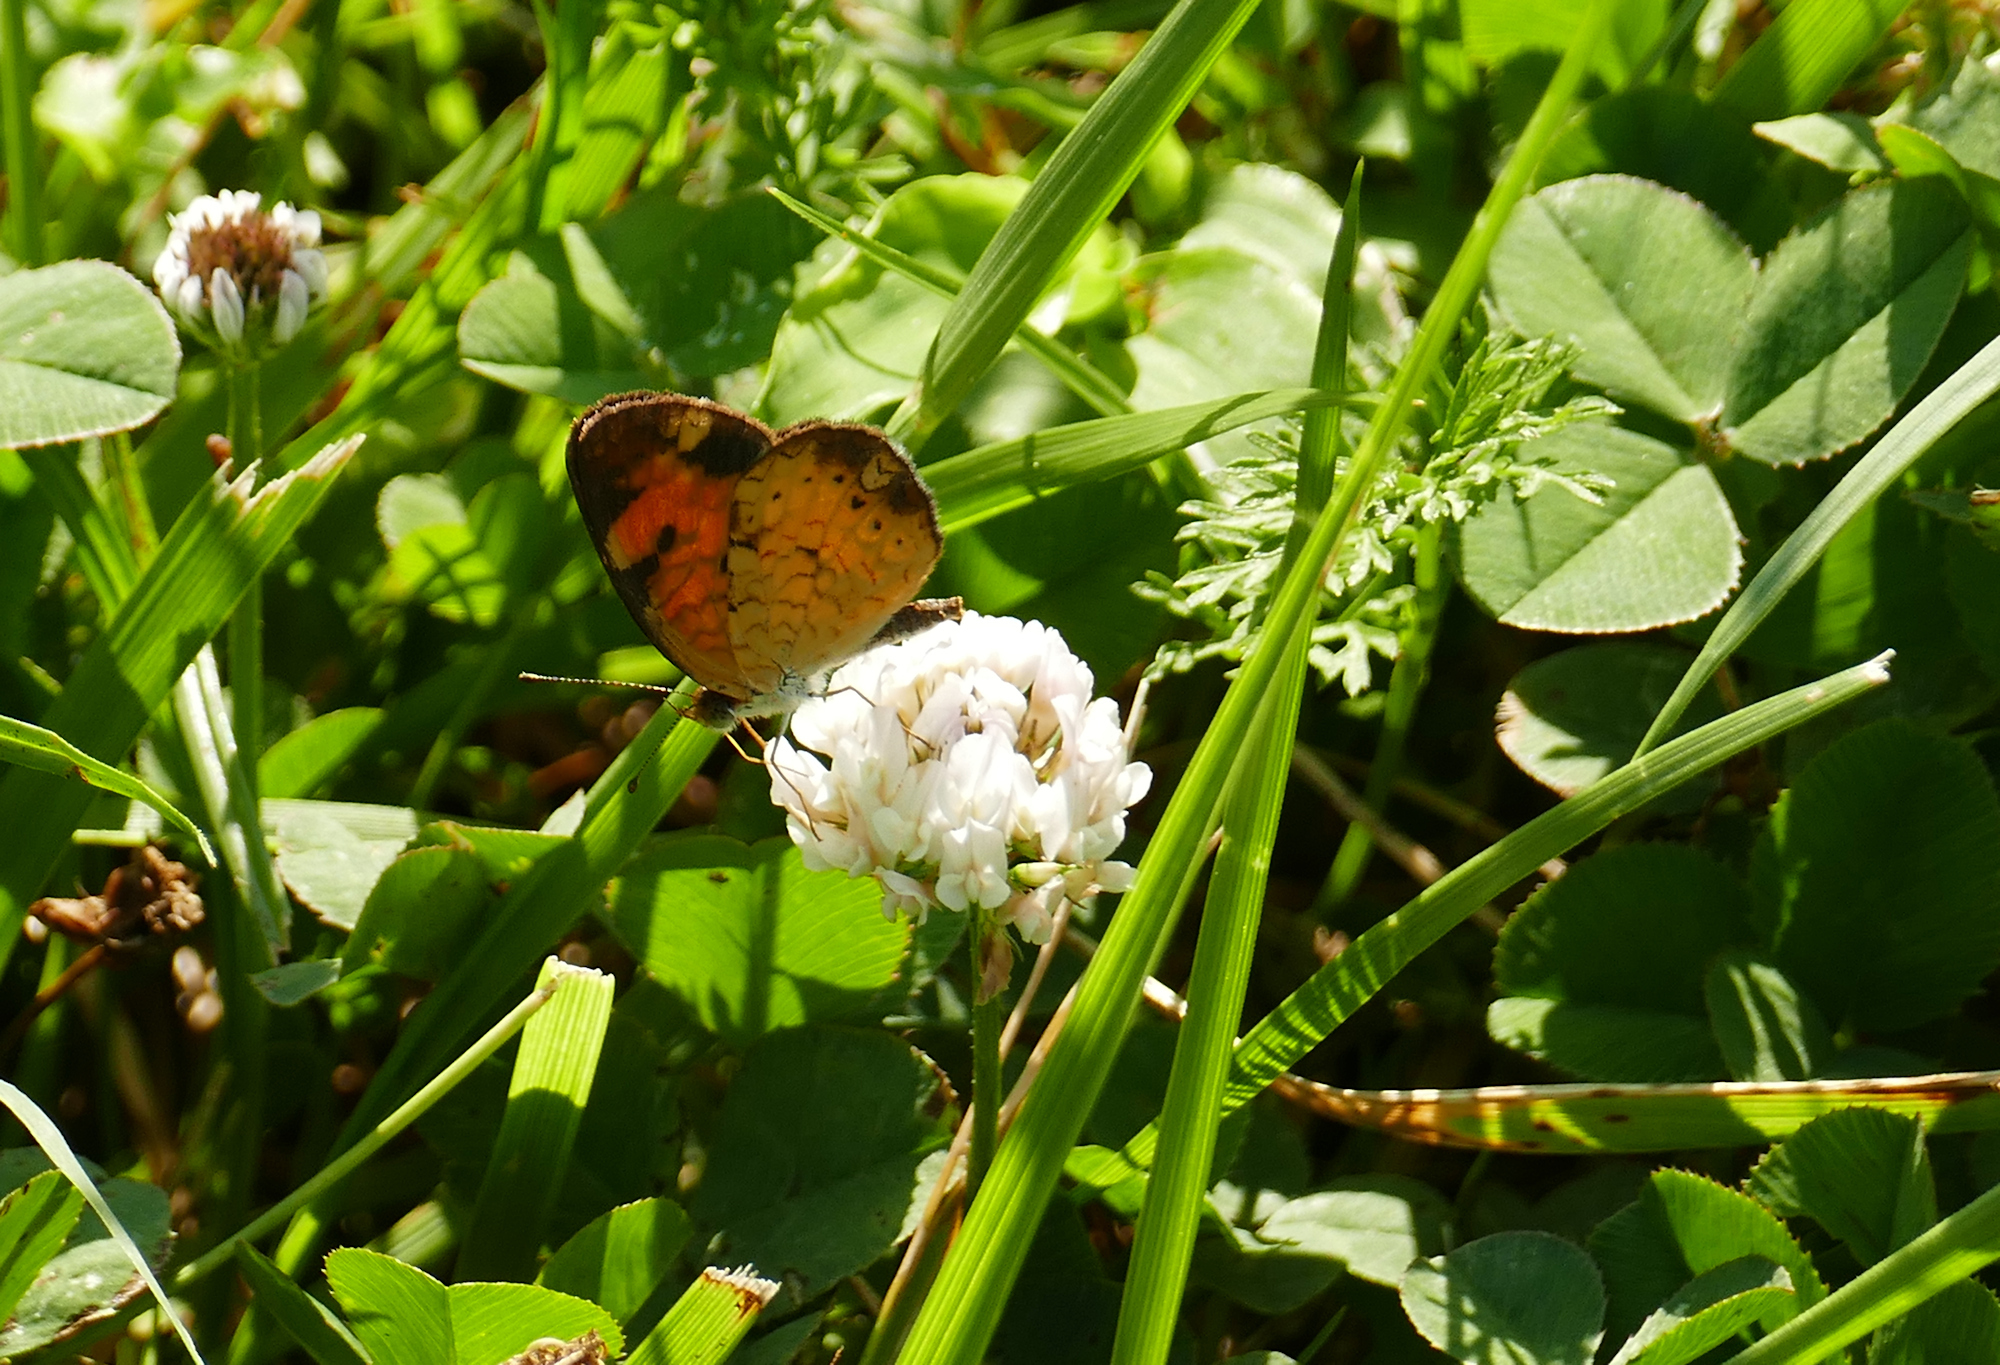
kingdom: Plantae
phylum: Tracheophyta
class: Magnoliopsida
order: Fabales
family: Fabaceae
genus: Trifolium
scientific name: Trifolium repens
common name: White clover
